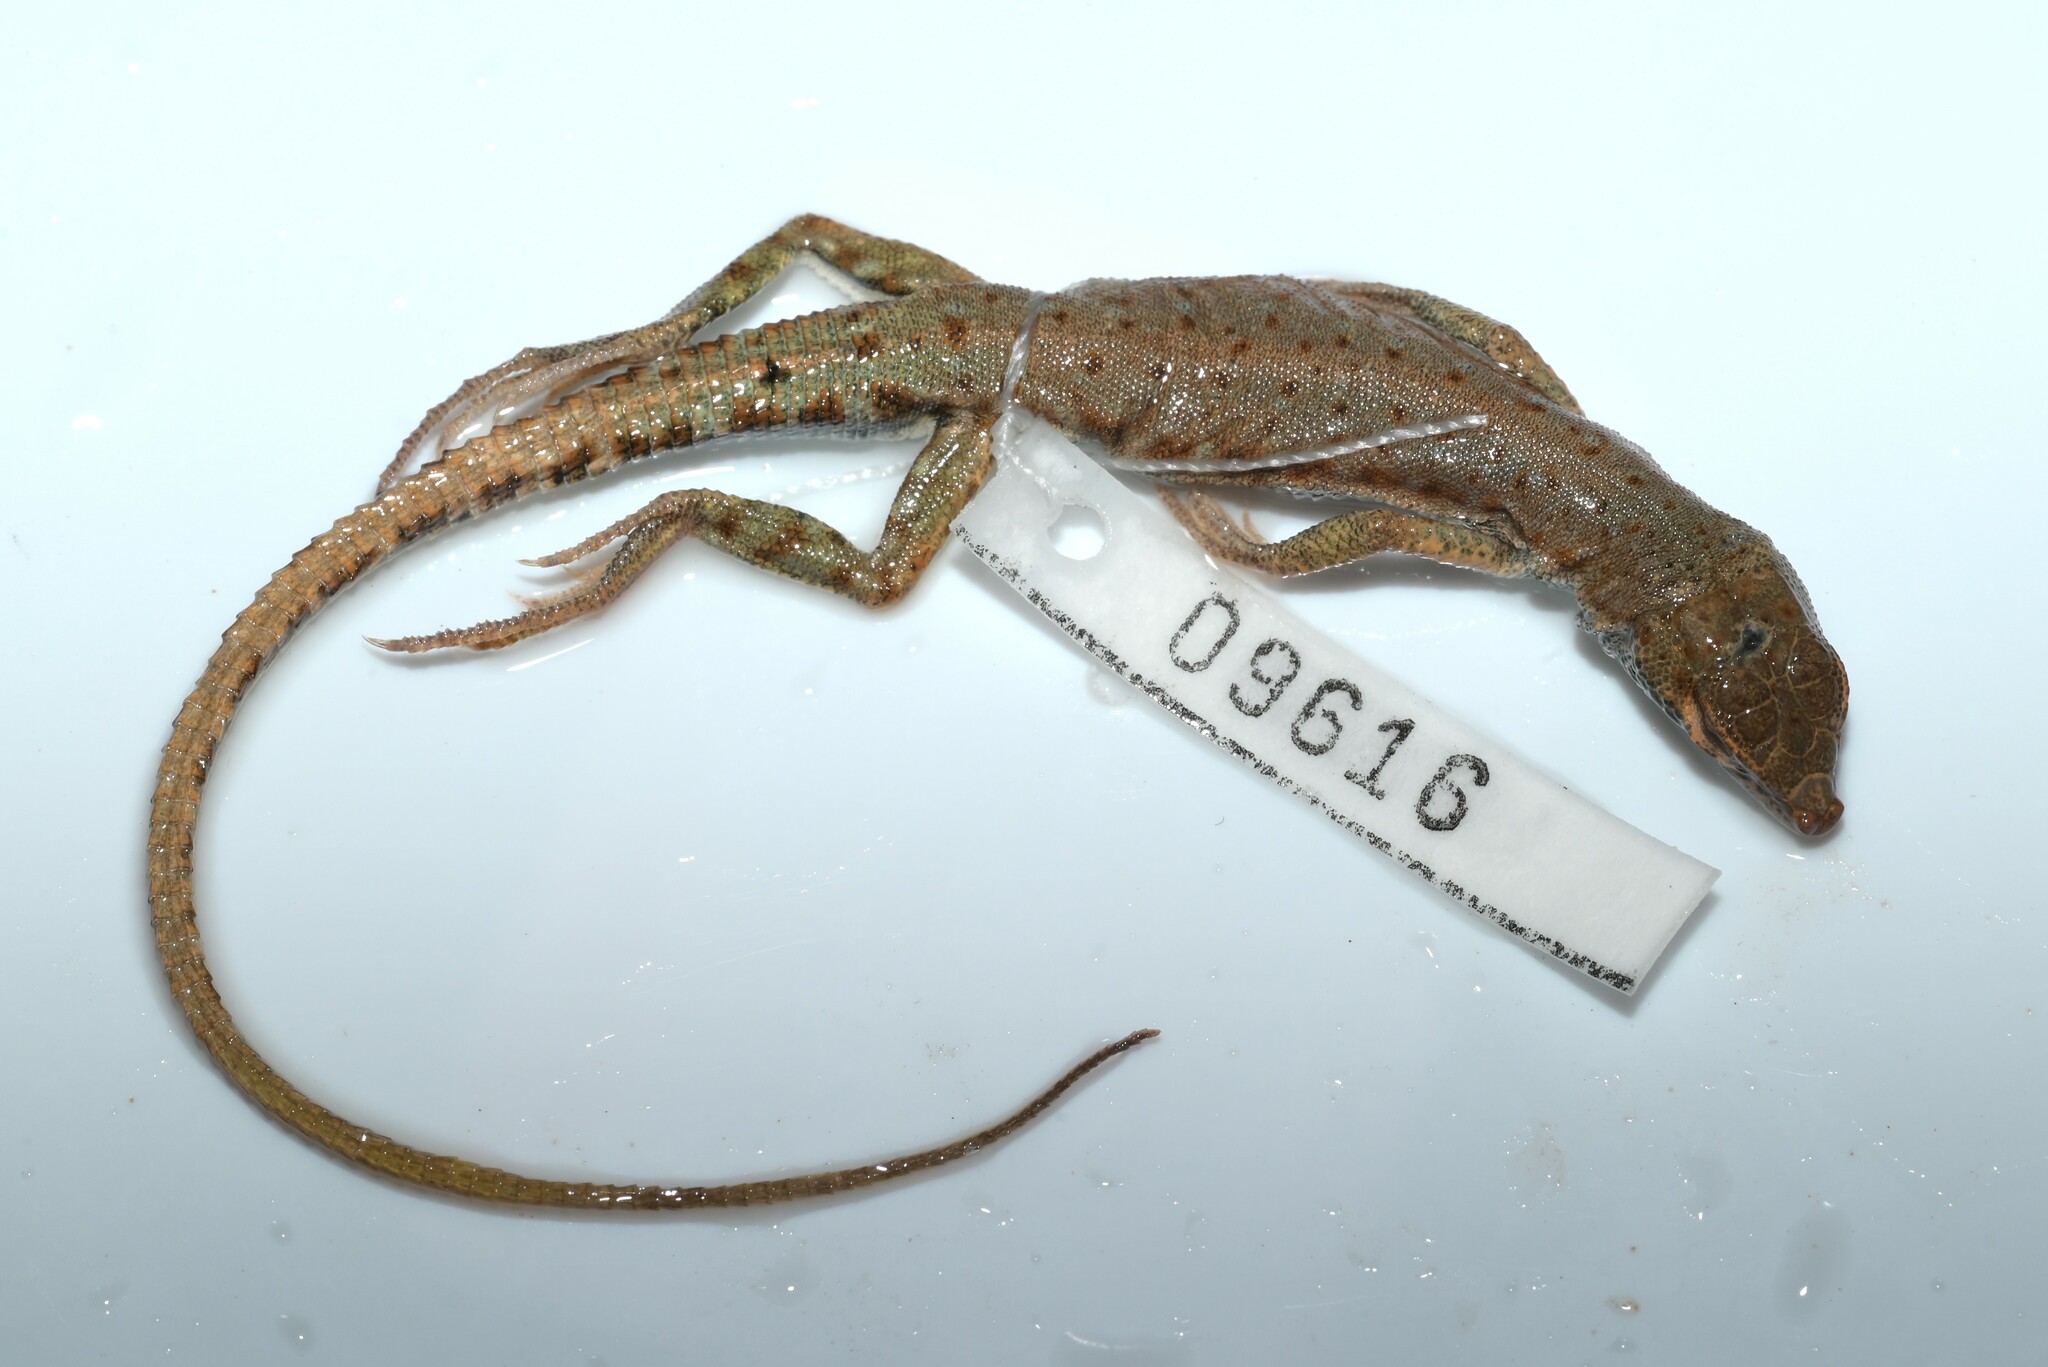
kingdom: Animalia
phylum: Chordata
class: Squamata
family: Lacertidae
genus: Mesalina
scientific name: Mesalina brevirostris
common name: Blanford's short-nosed desert lizard
